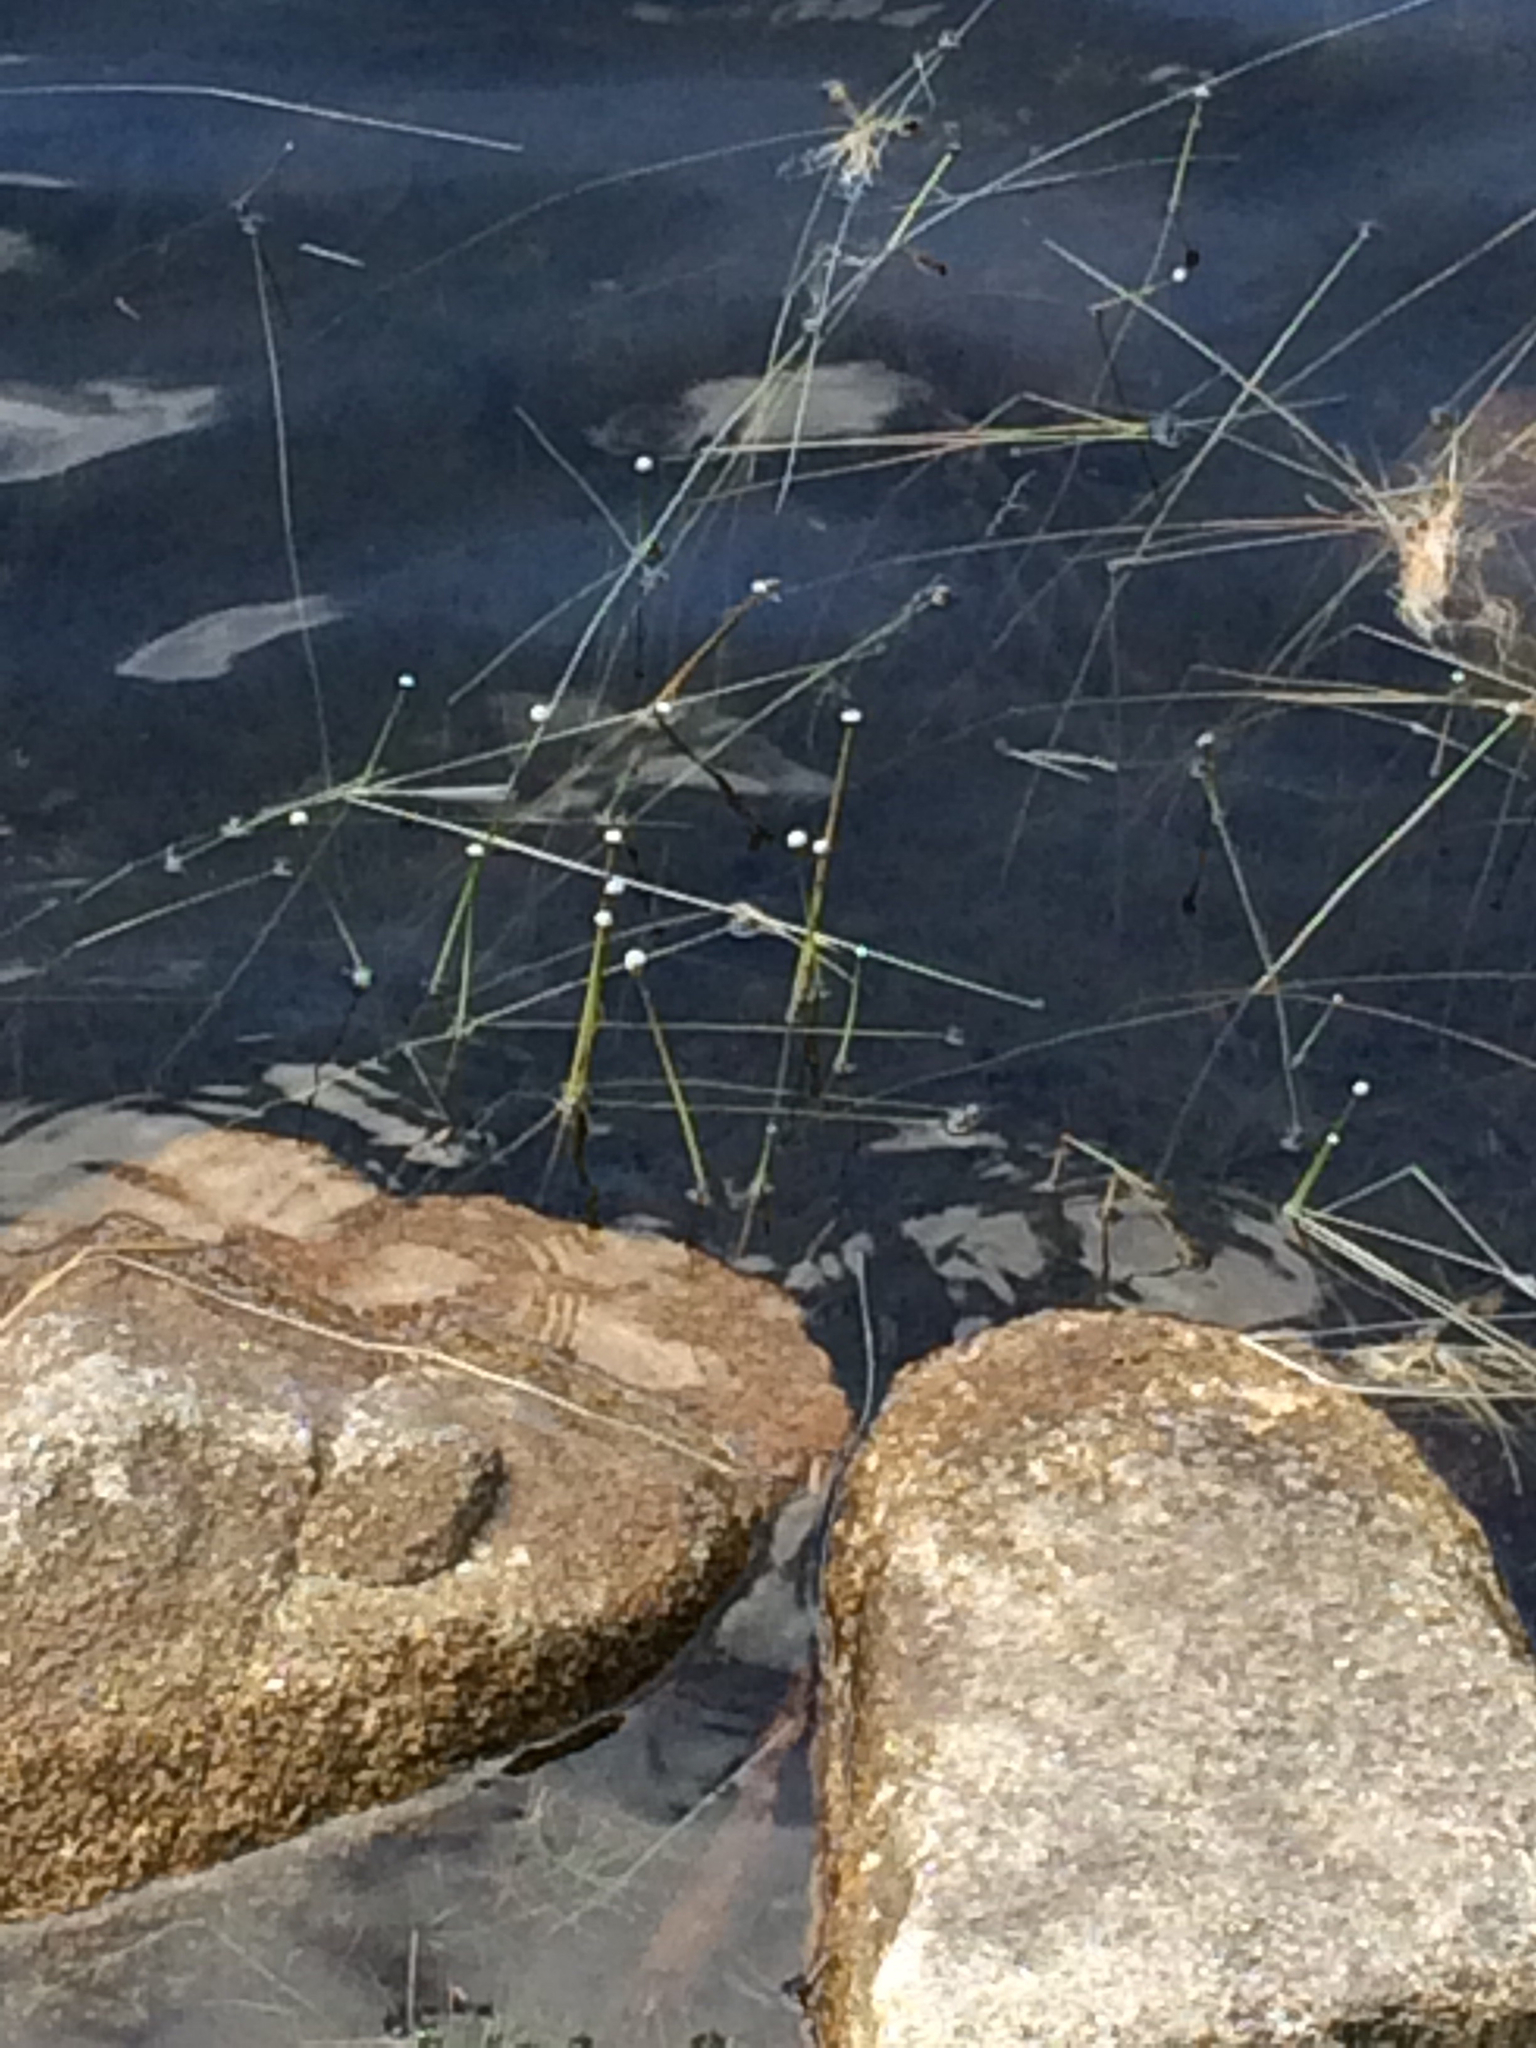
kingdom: Plantae
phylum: Tracheophyta
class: Liliopsida
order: Poales
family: Eriocaulaceae
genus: Eriocaulon
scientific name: Eriocaulon aquaticum
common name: Pipewort
